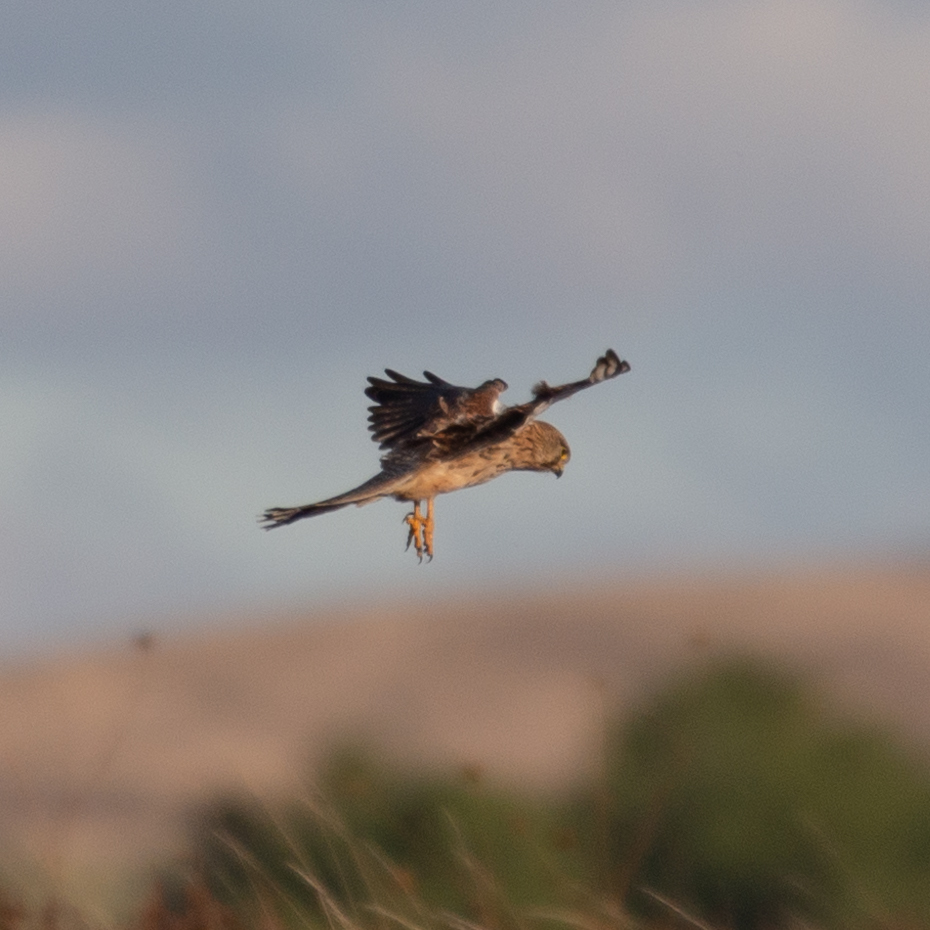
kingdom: Animalia
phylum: Chordata
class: Aves
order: Falconiformes
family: Falconidae
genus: Falco
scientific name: Falco tinnunculus
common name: Common kestrel
